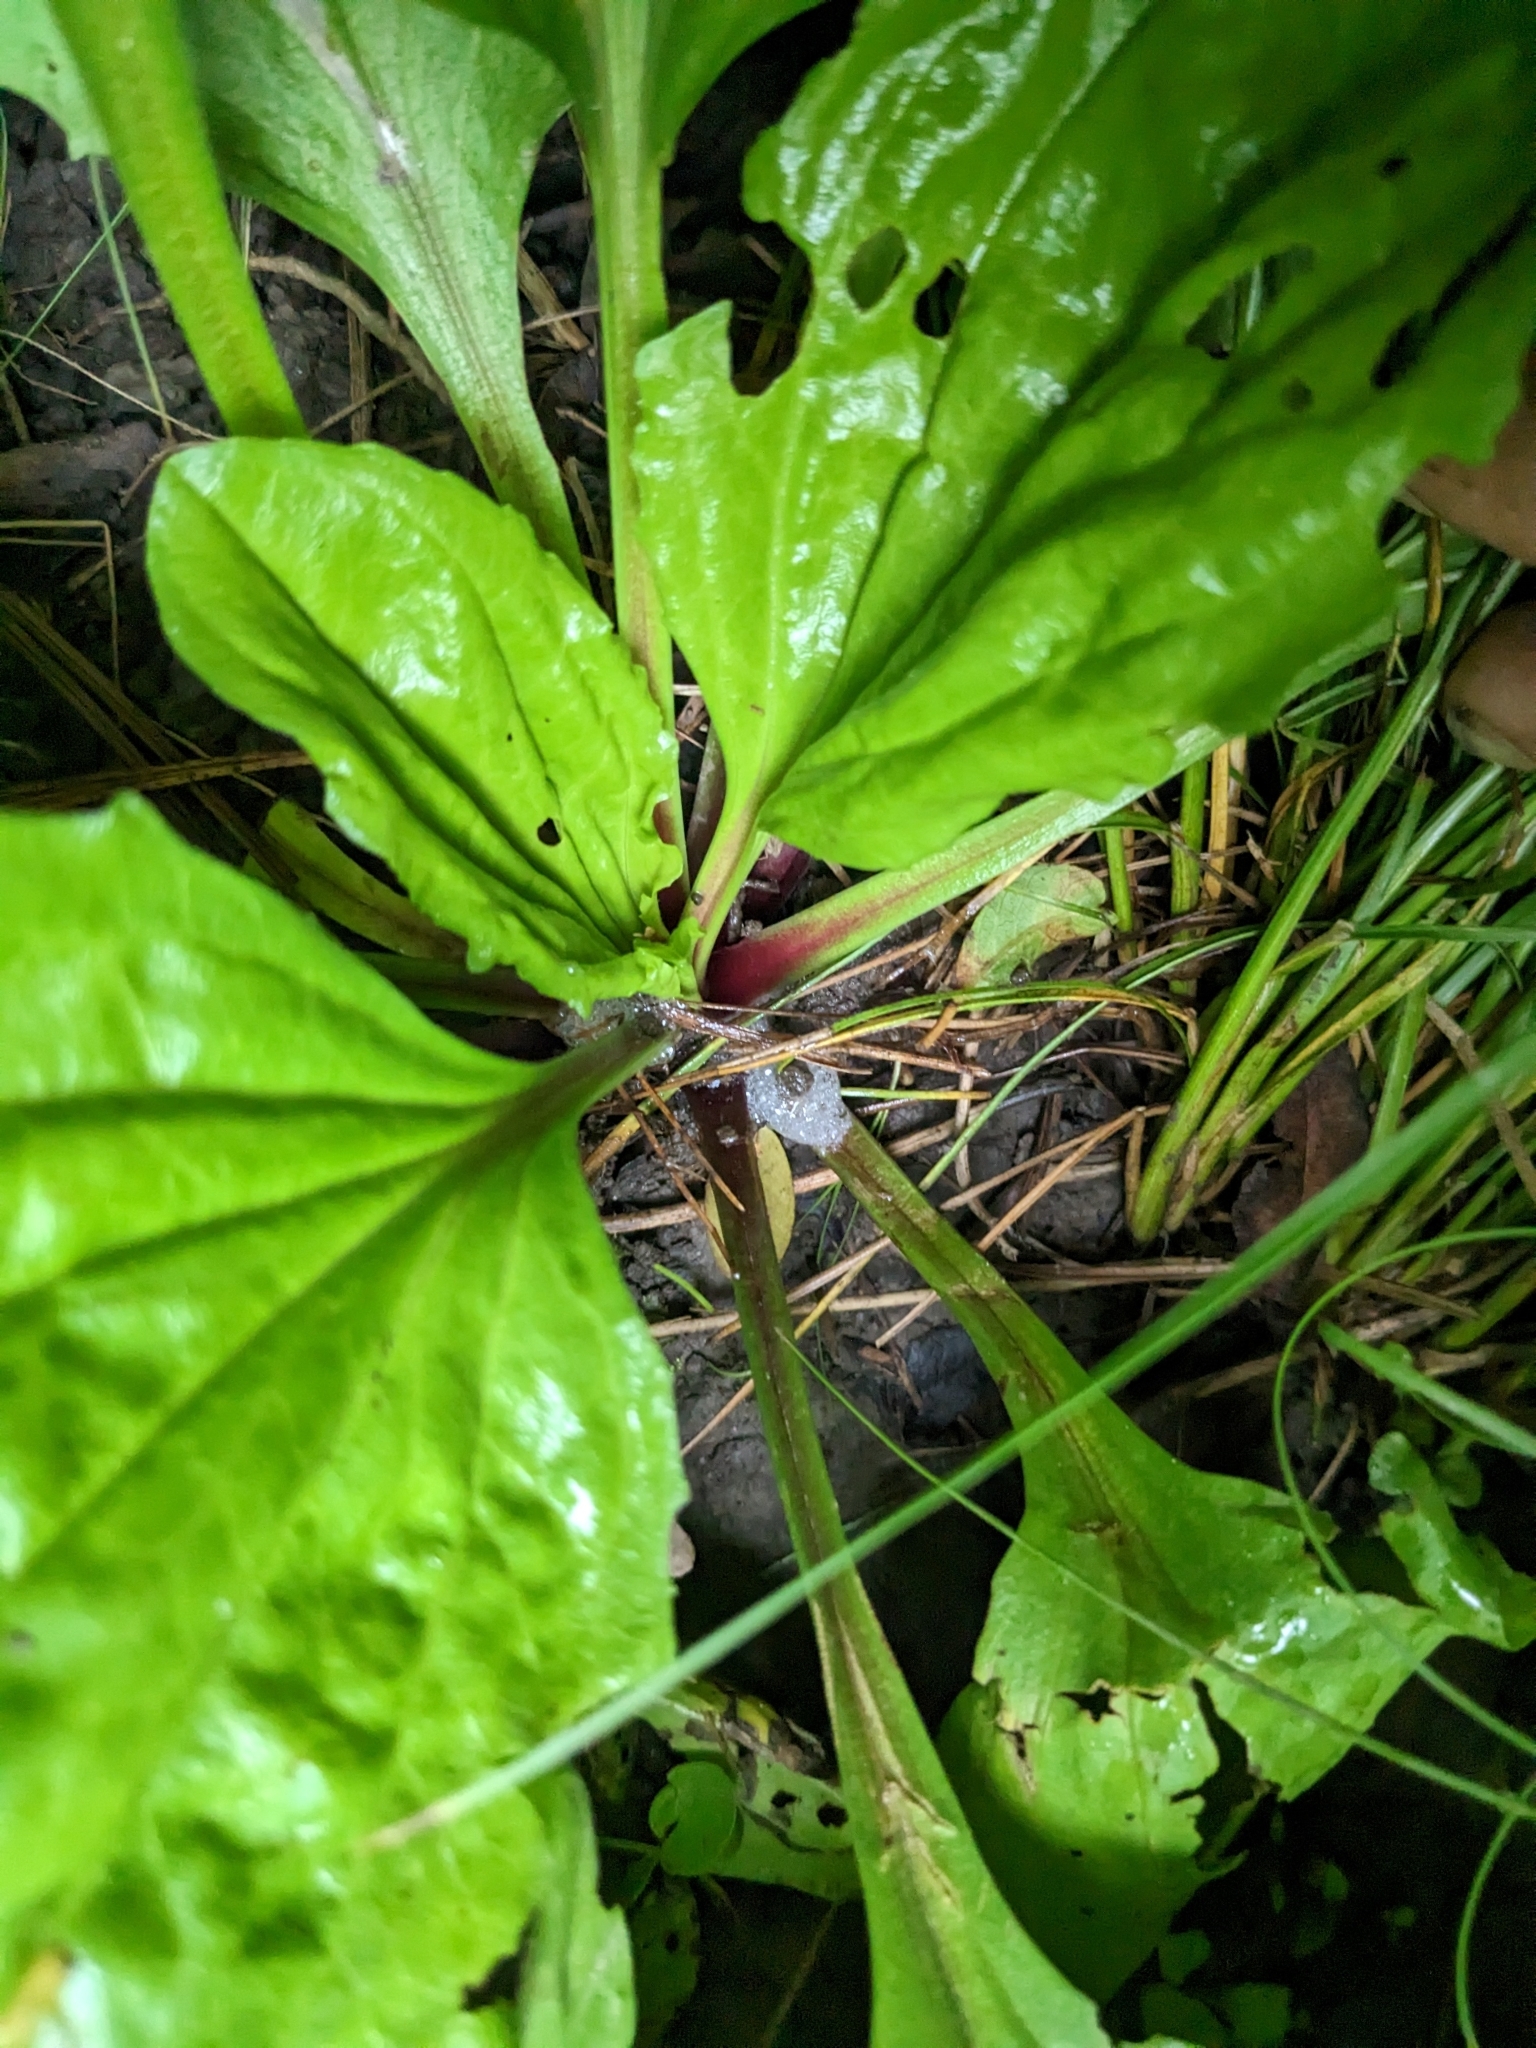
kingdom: Plantae
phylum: Tracheophyta
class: Magnoliopsida
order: Lamiales
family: Plantaginaceae
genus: Plantago
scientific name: Plantago rugelii
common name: American plantain
